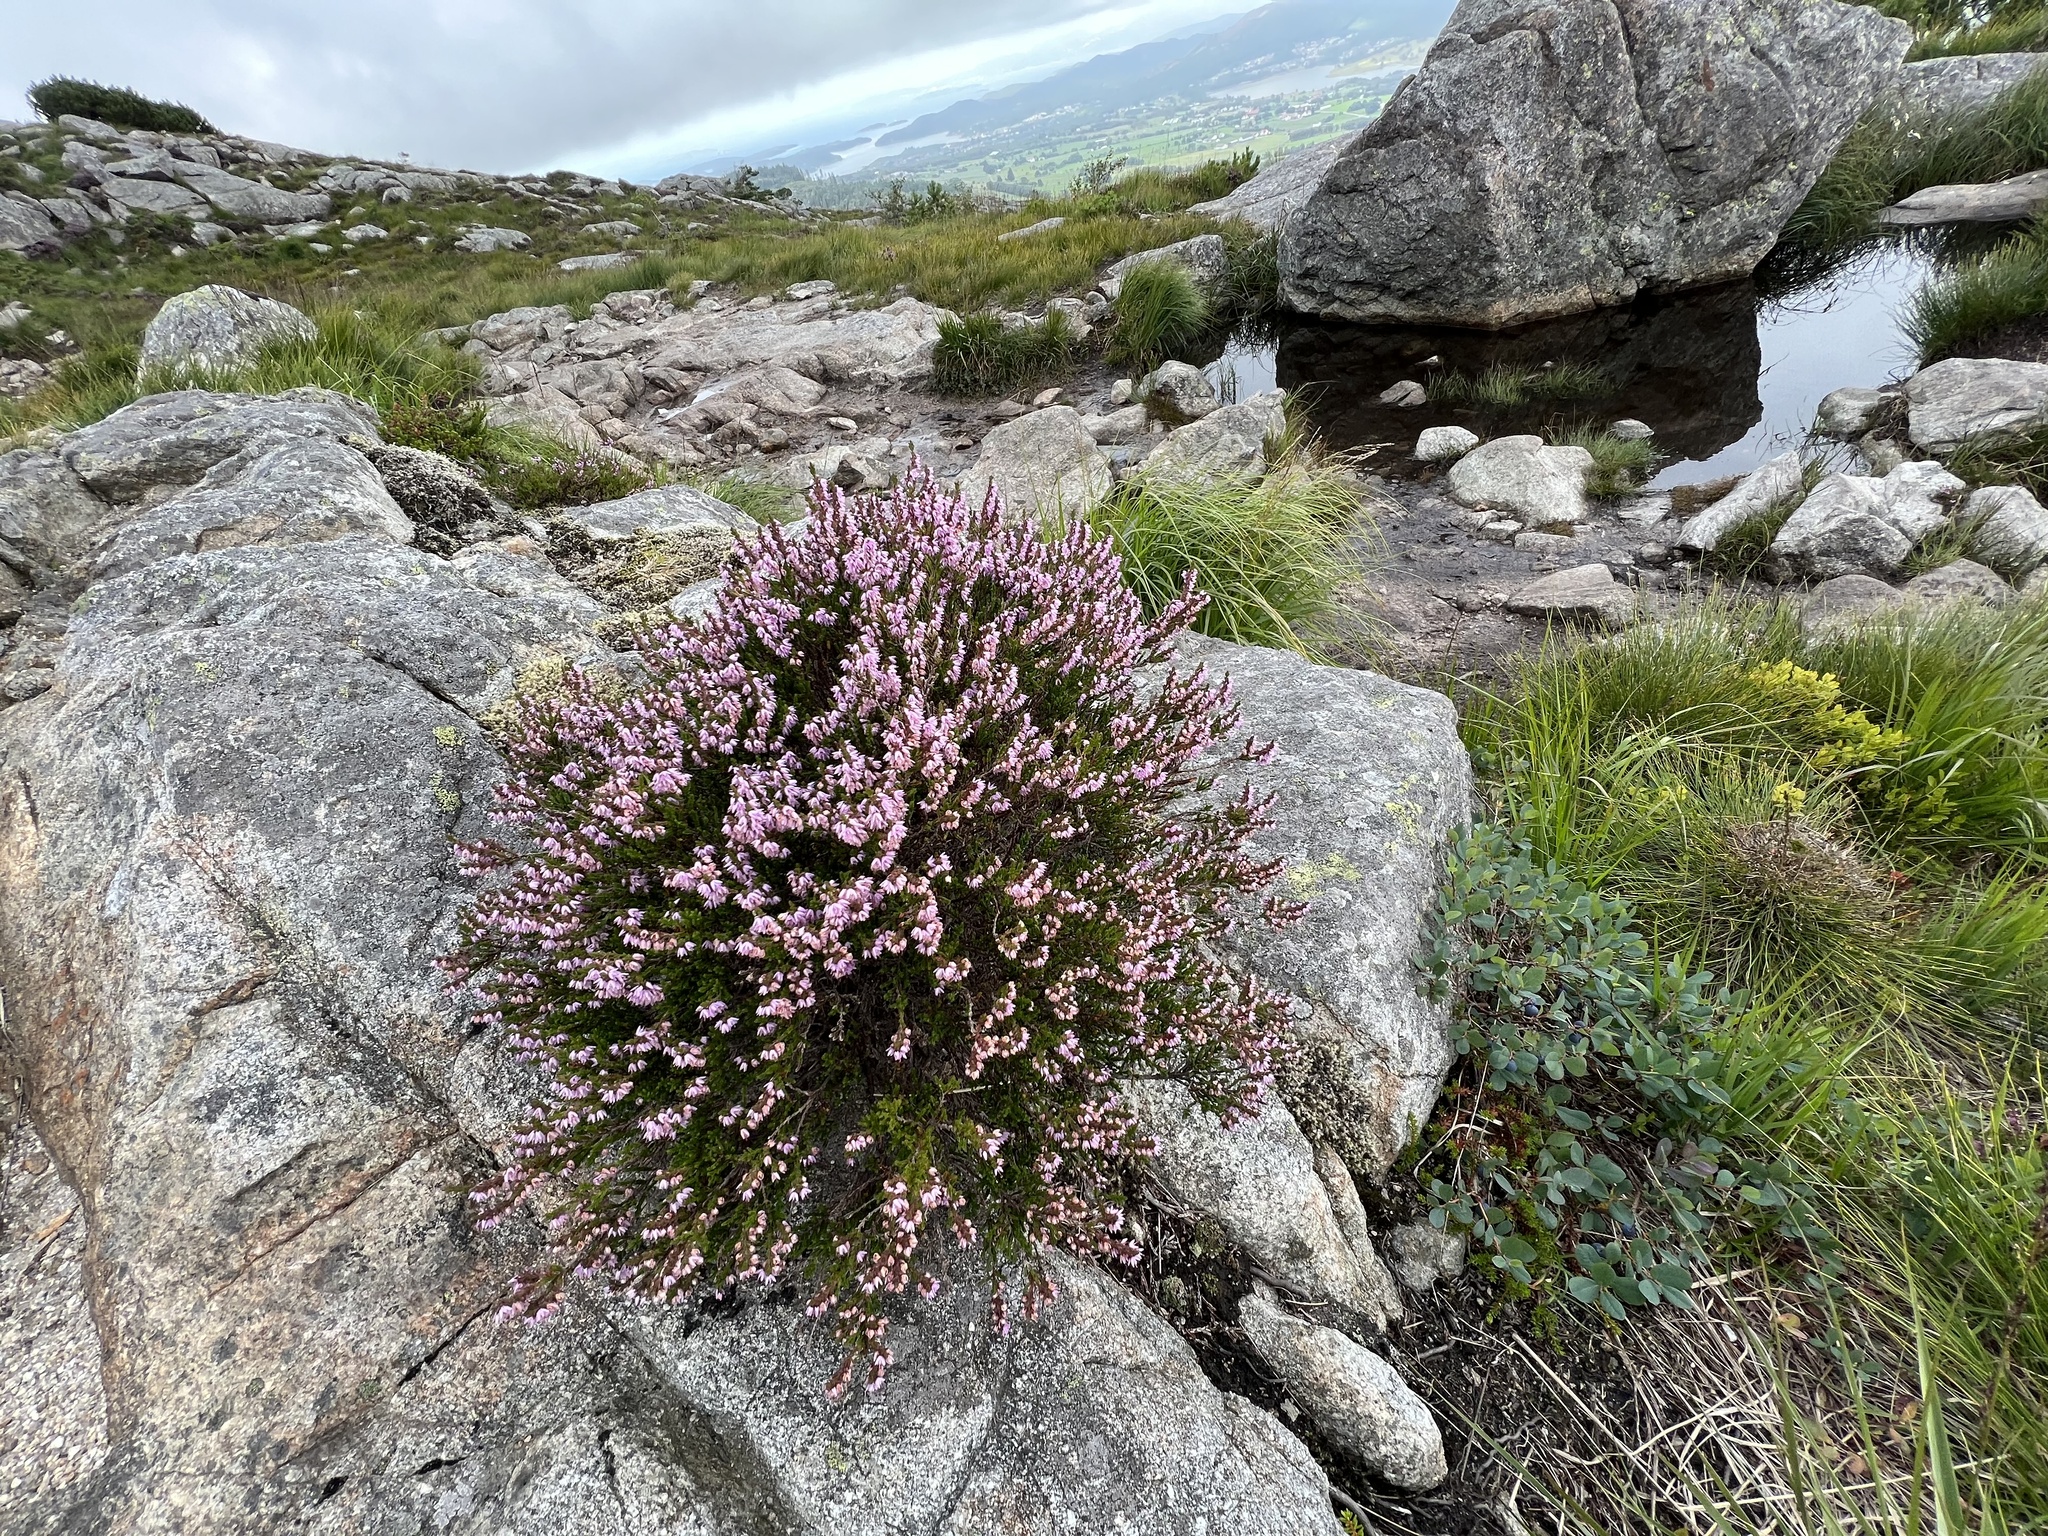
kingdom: Plantae
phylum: Tracheophyta
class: Magnoliopsida
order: Ericales
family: Ericaceae
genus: Calluna
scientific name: Calluna vulgaris
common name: Heather
